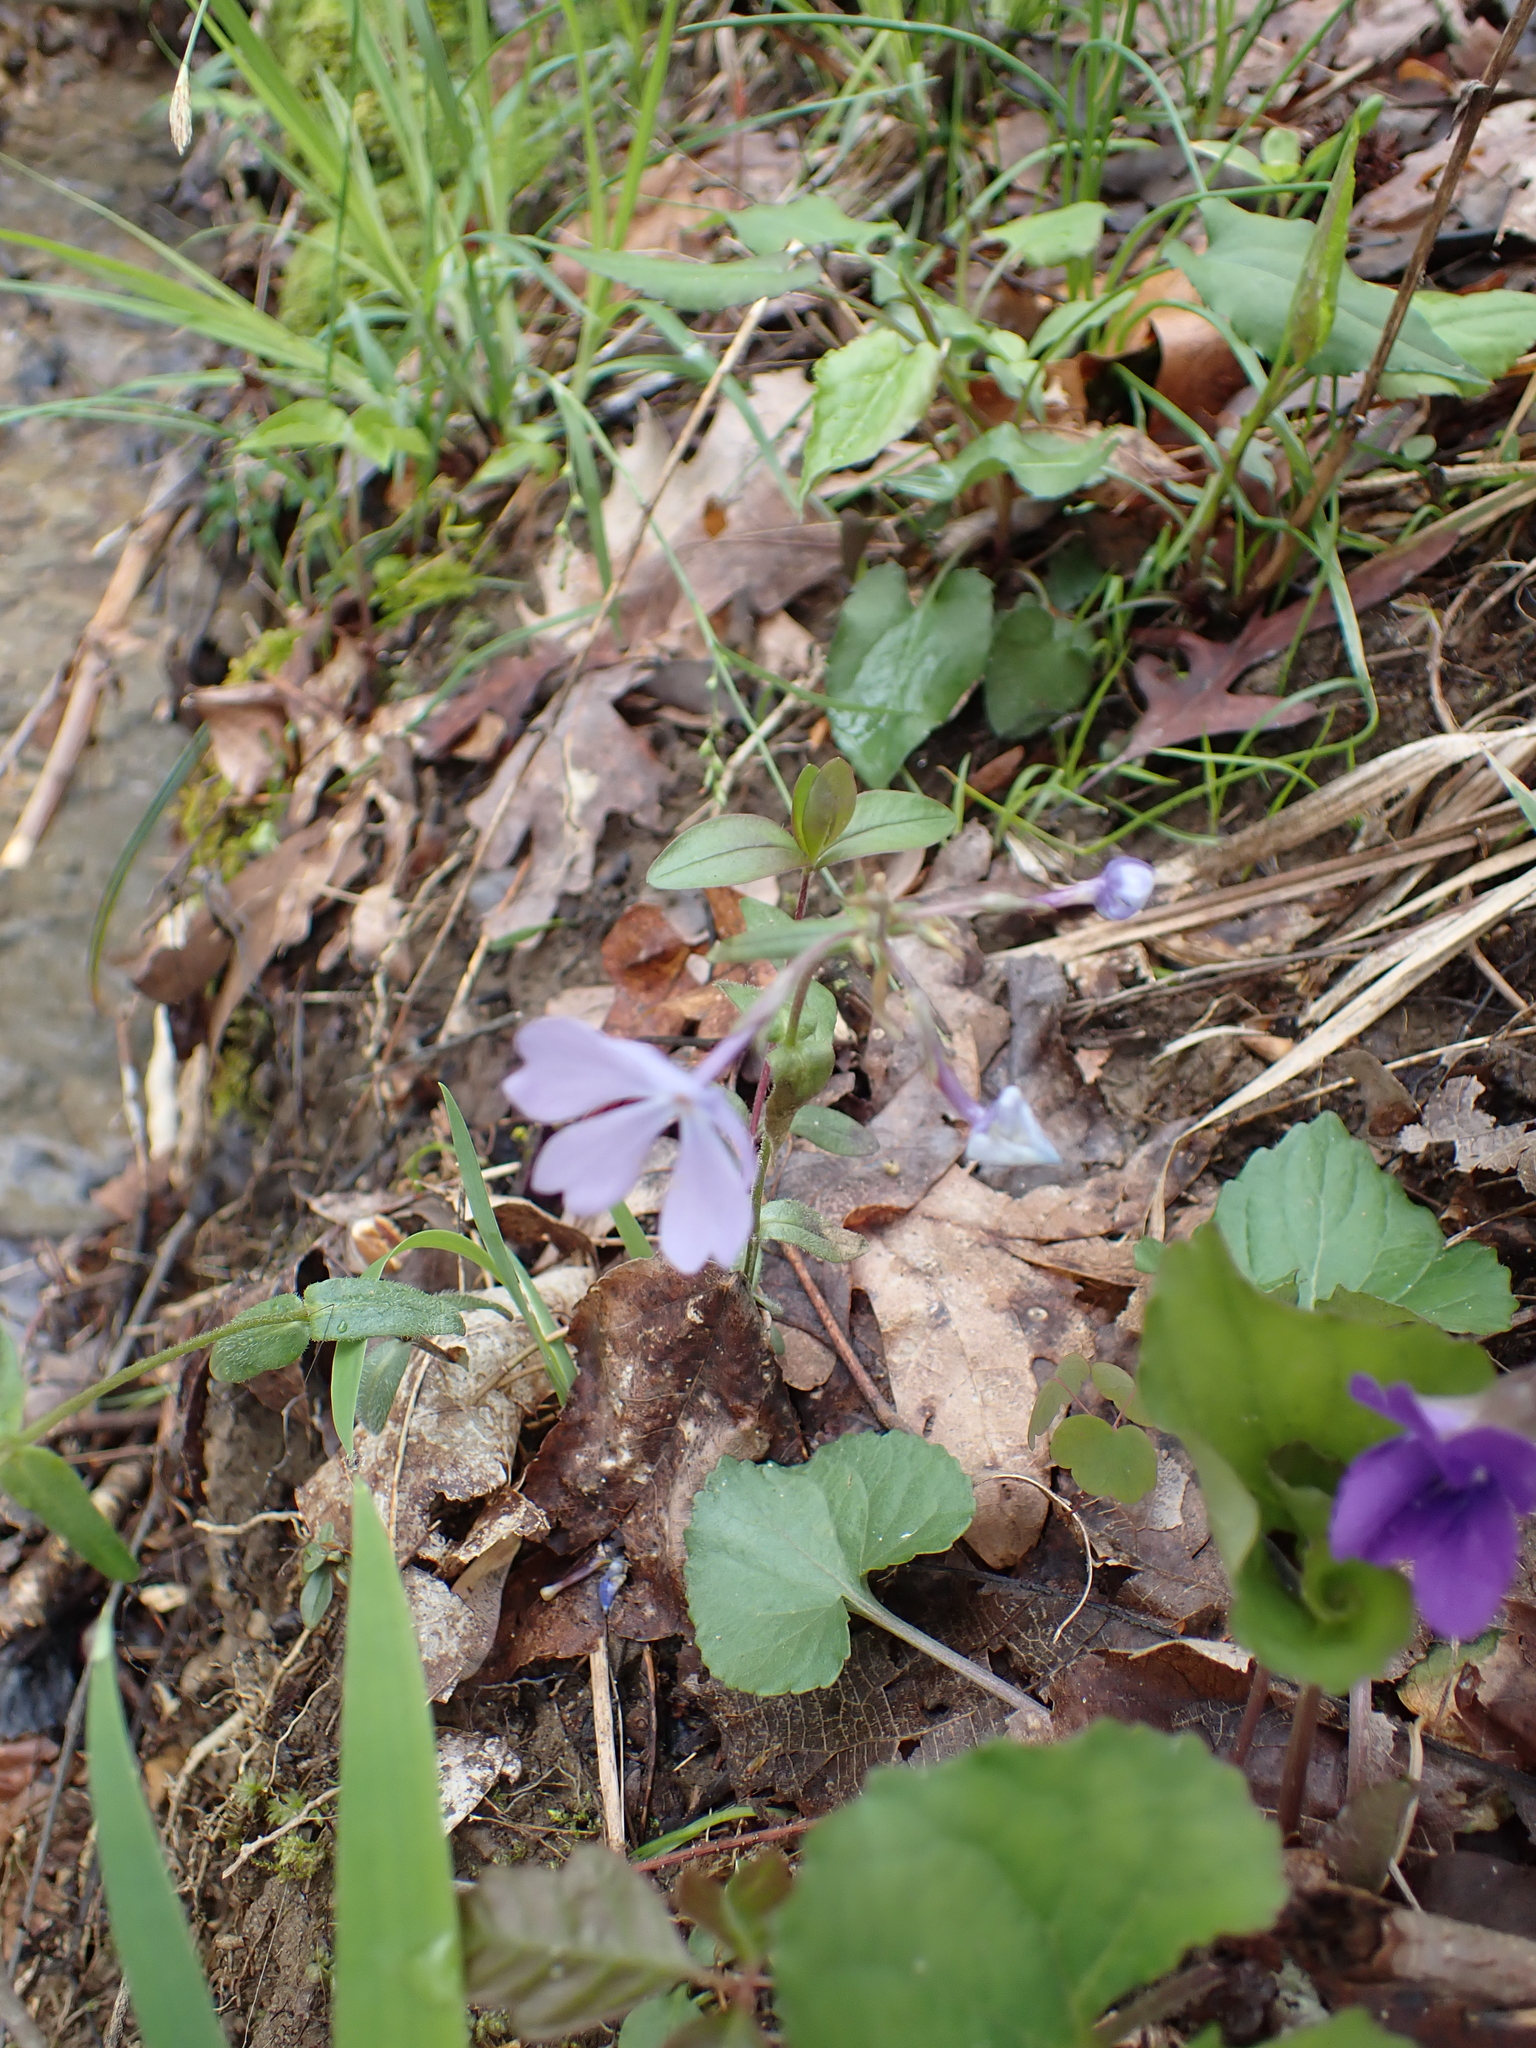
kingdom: Plantae
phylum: Tracheophyta
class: Magnoliopsida
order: Ericales
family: Polemoniaceae
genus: Phlox
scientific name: Phlox divaricata
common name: Blue phlox
